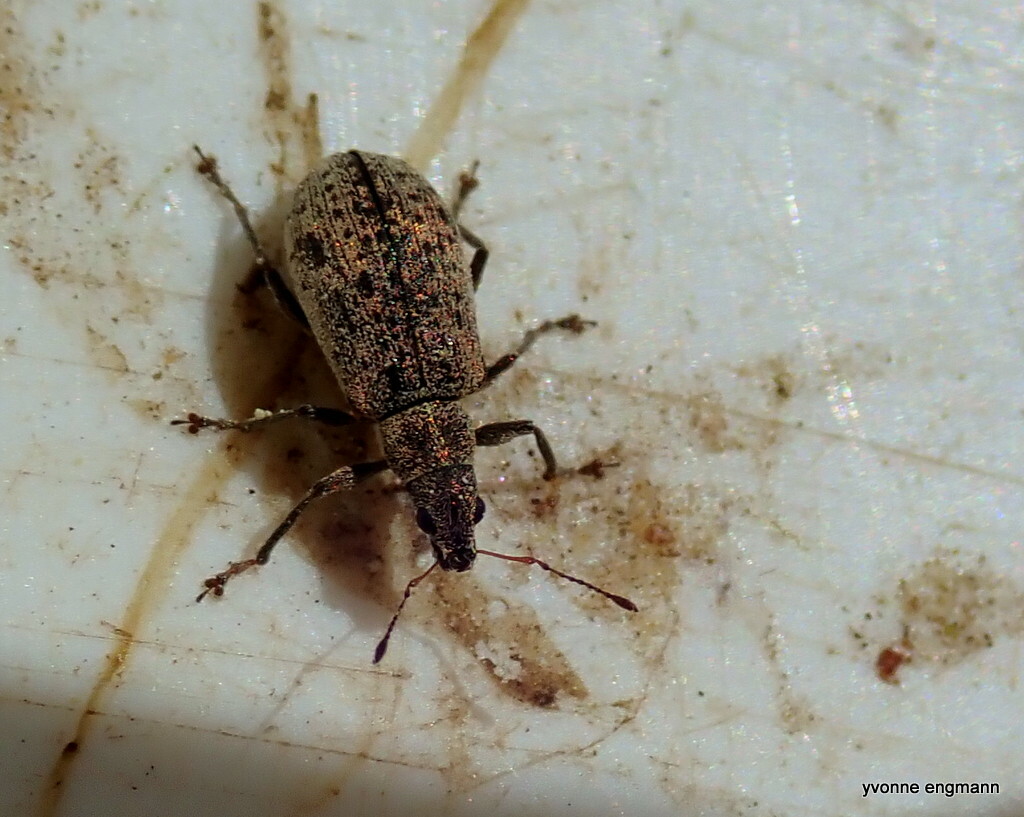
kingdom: Animalia
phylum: Arthropoda
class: Insecta
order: Coleoptera
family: Curculionidae
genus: Polydrusus
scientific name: Polydrusus cervinus
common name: Weevil
